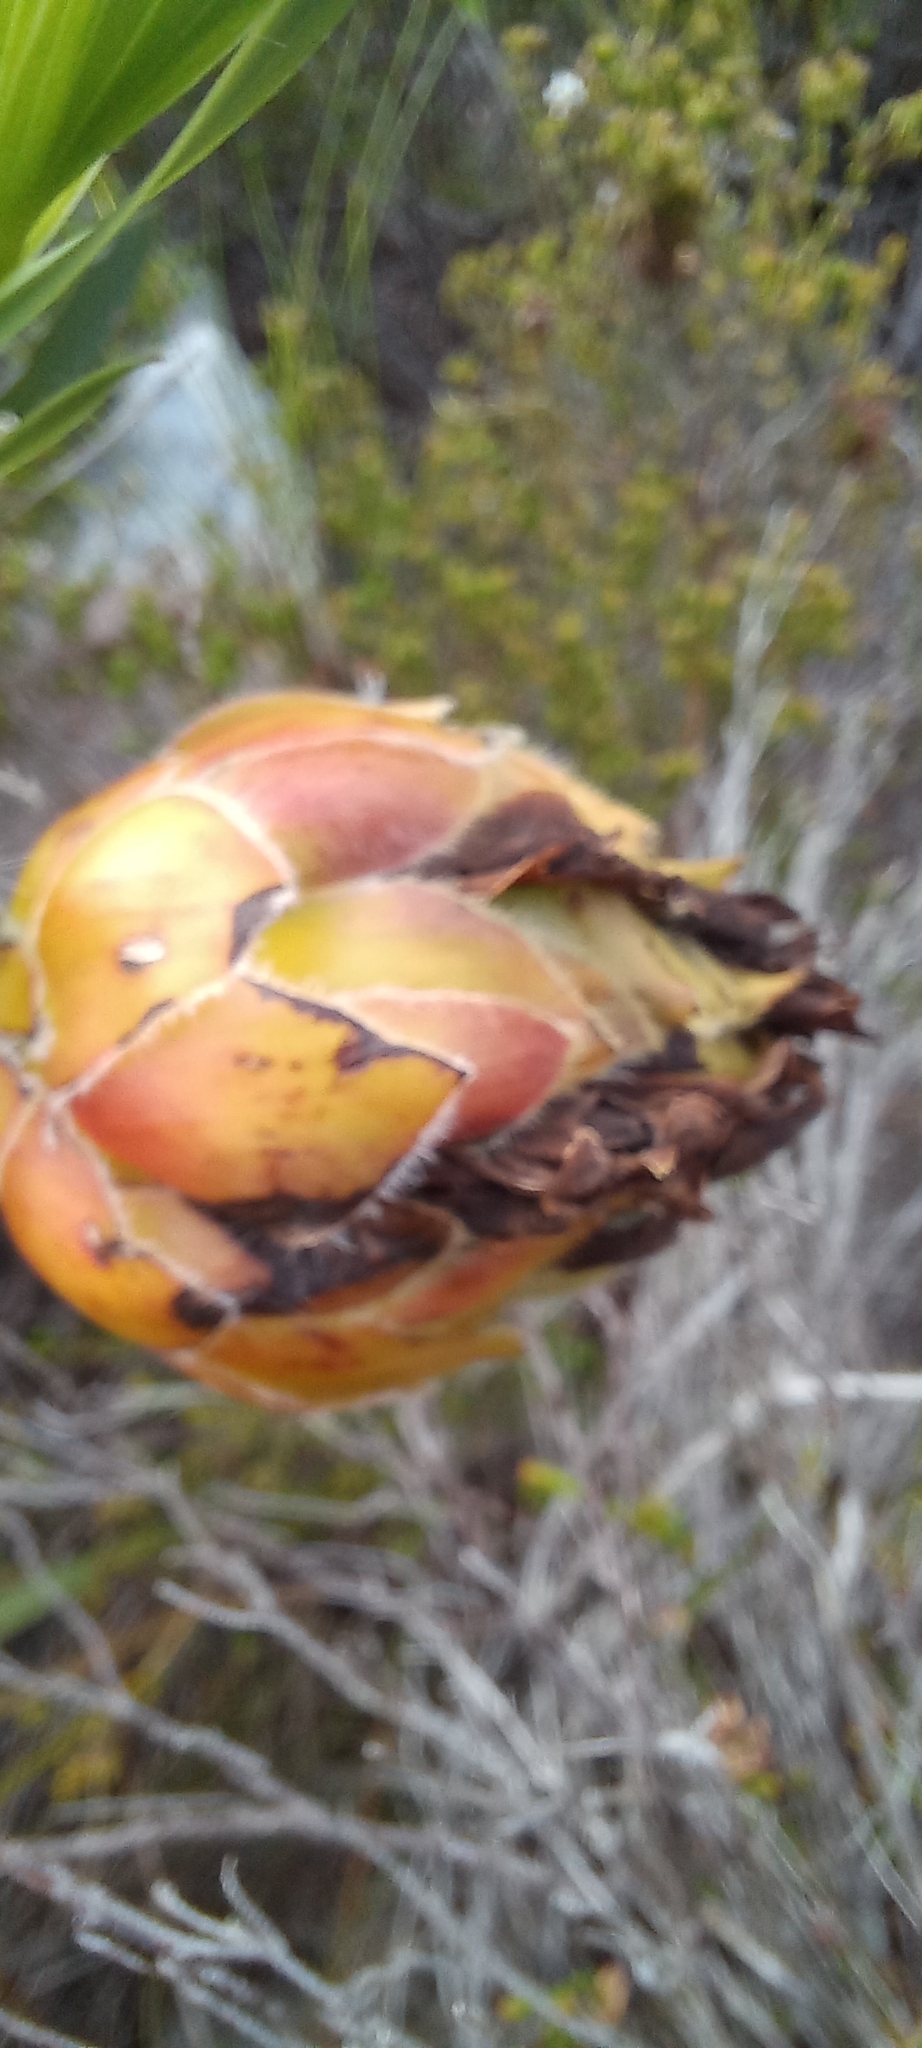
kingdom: Plantae
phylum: Tracheophyta
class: Magnoliopsida
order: Fabales
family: Fabaceae
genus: Liparia
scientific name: Liparia splendens
